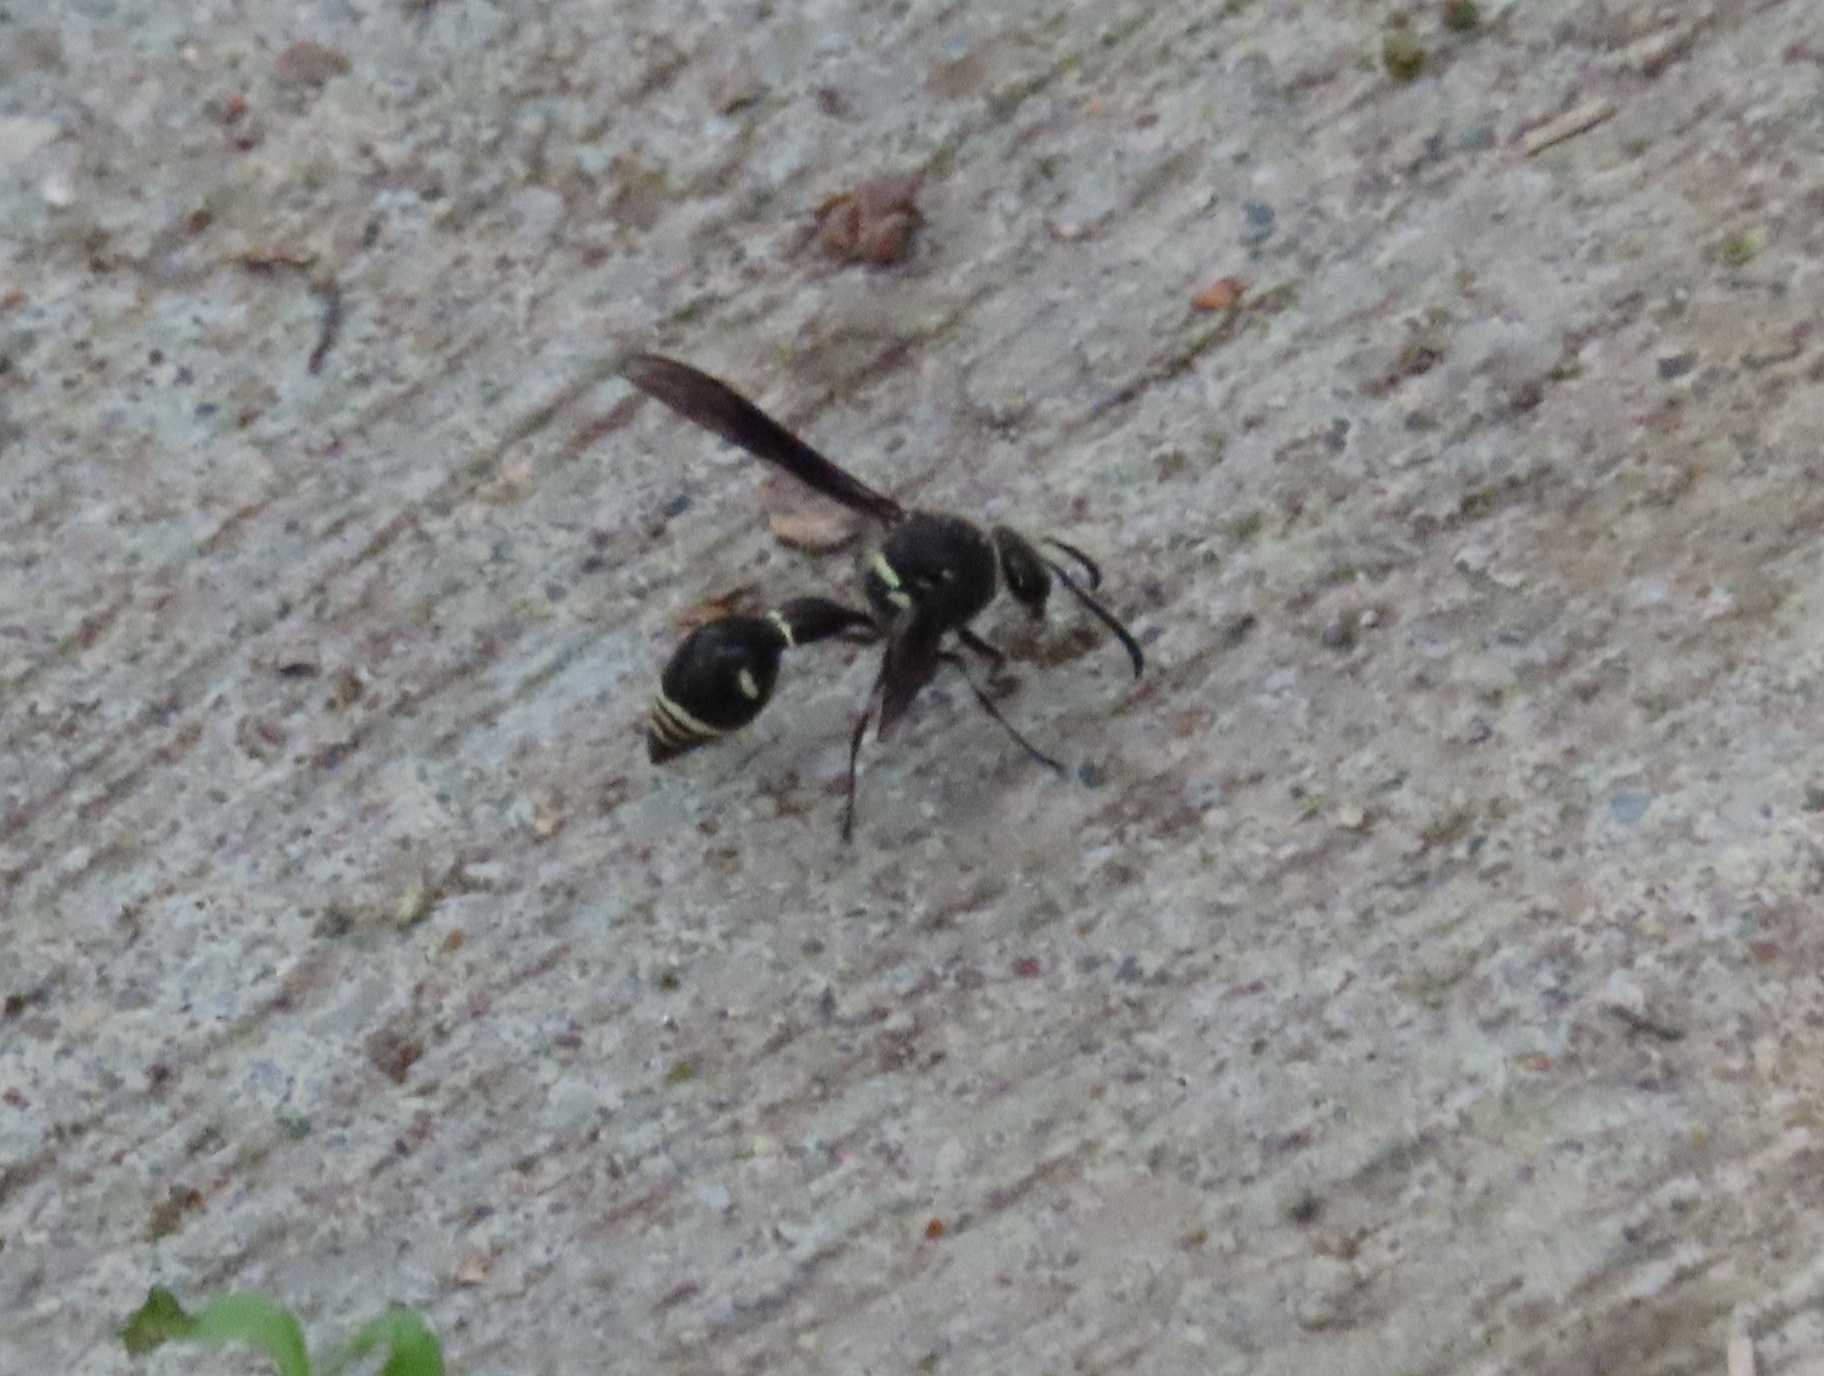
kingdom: Animalia
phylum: Arthropoda
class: Insecta
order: Hymenoptera
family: Vespidae
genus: Eumenes
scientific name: Eumenes fraternus
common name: Fraternal potter wasp
